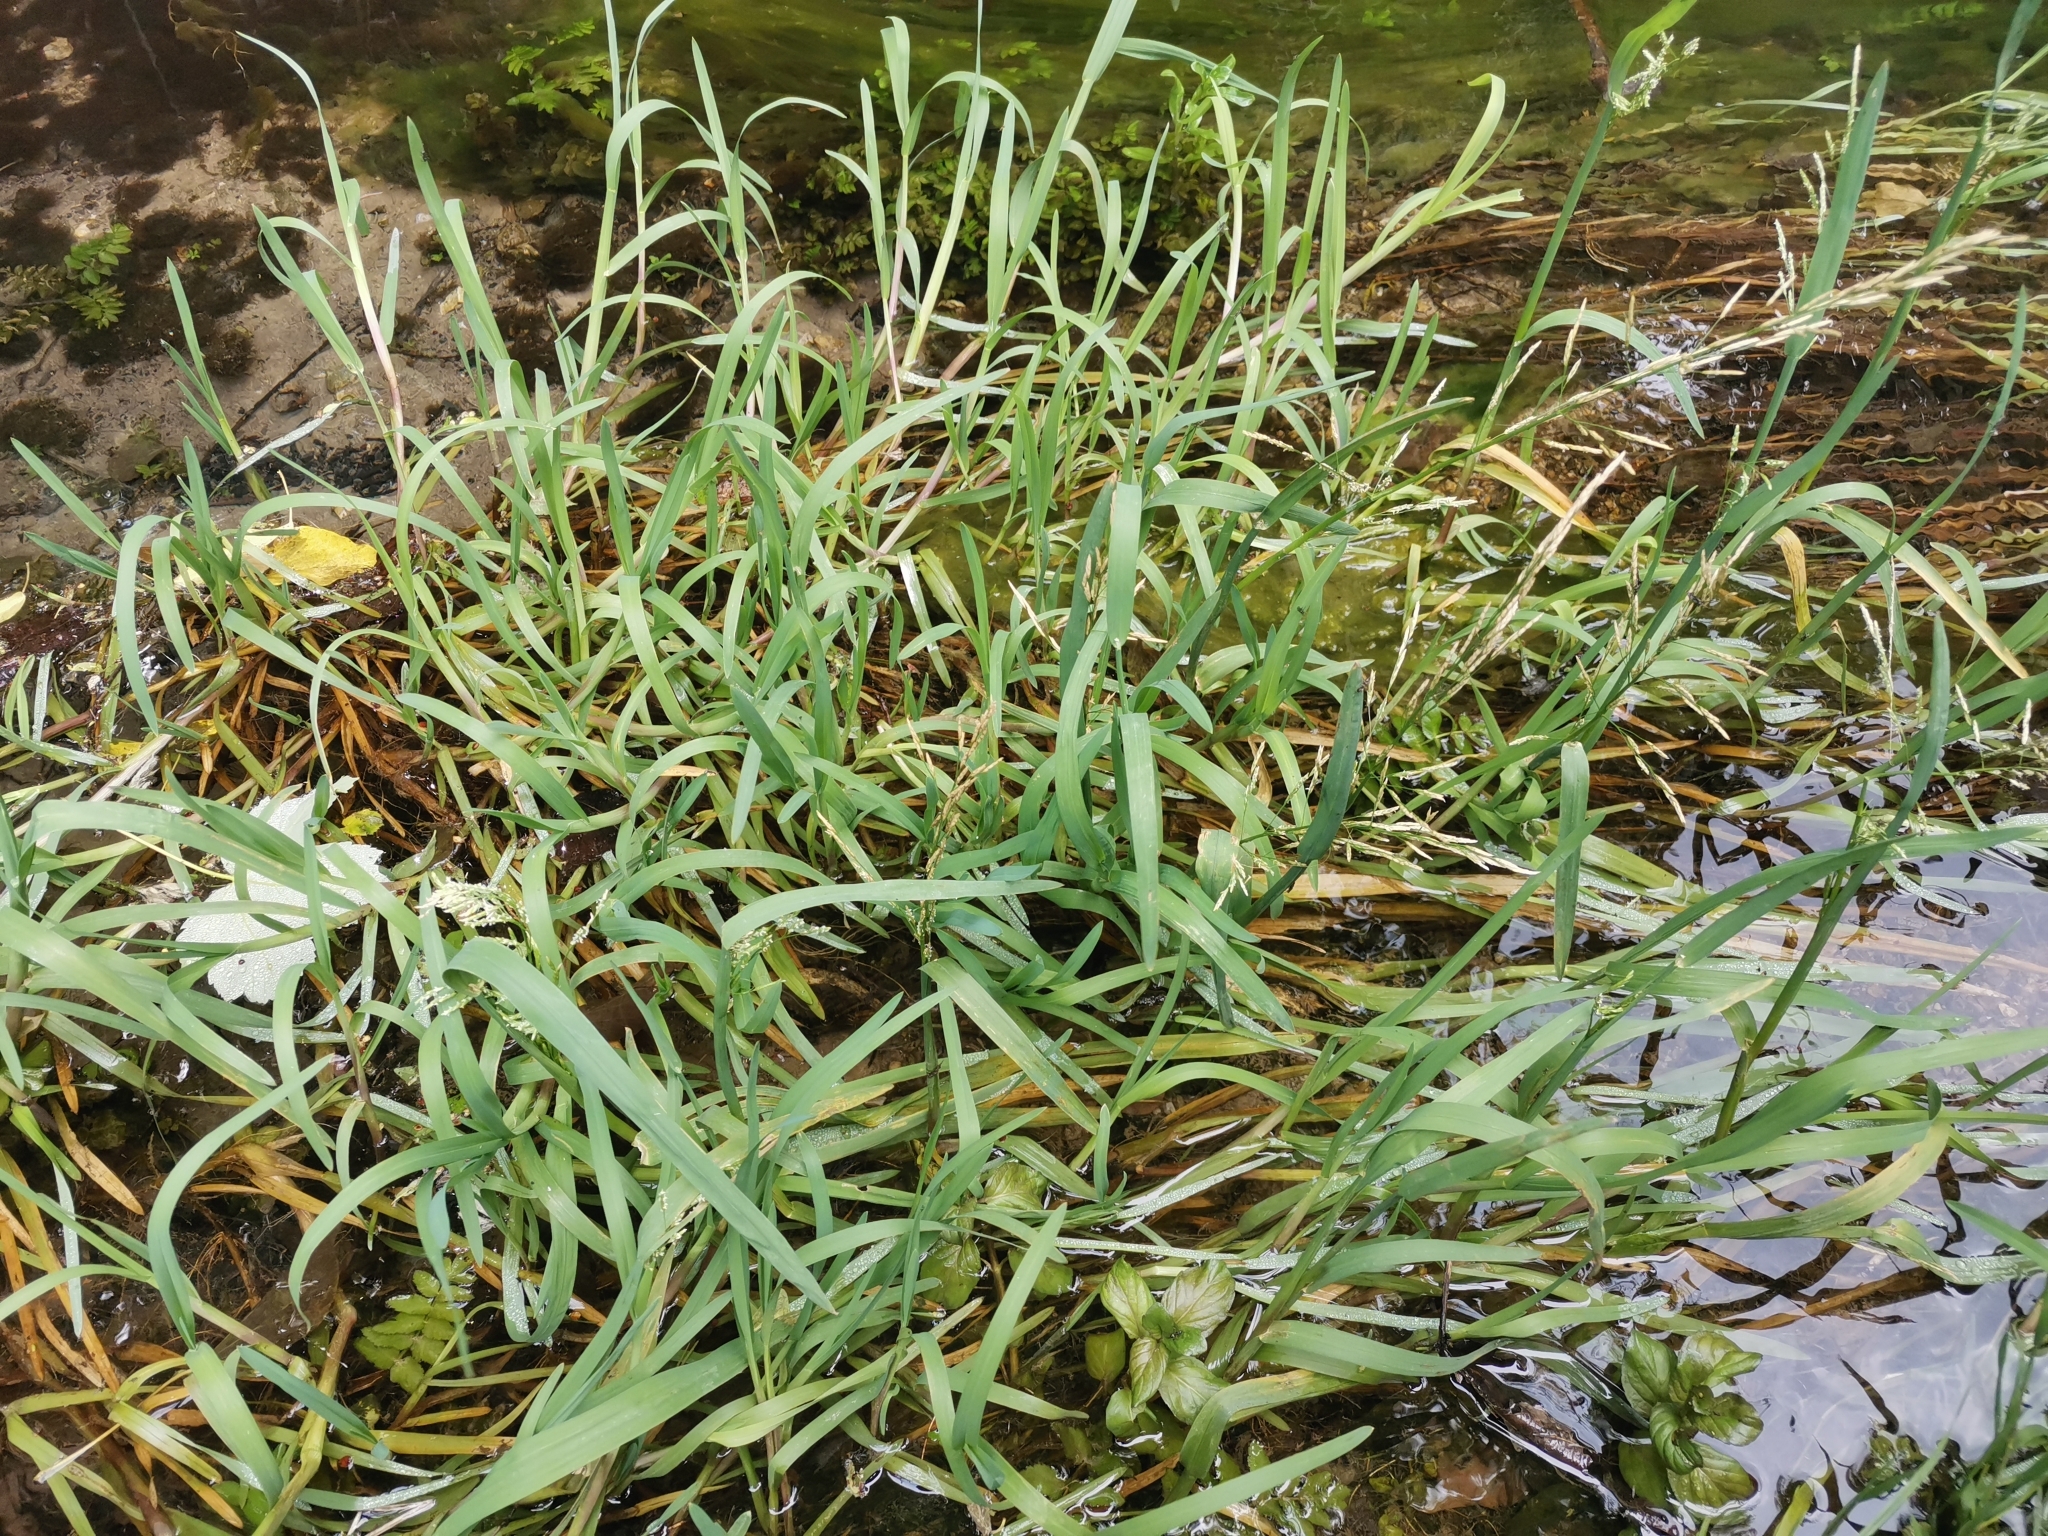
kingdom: Plantae
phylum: Tracheophyta
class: Liliopsida
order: Poales
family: Poaceae
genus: Glyceria
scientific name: Glyceria notata
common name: Plicate sweet-grass
